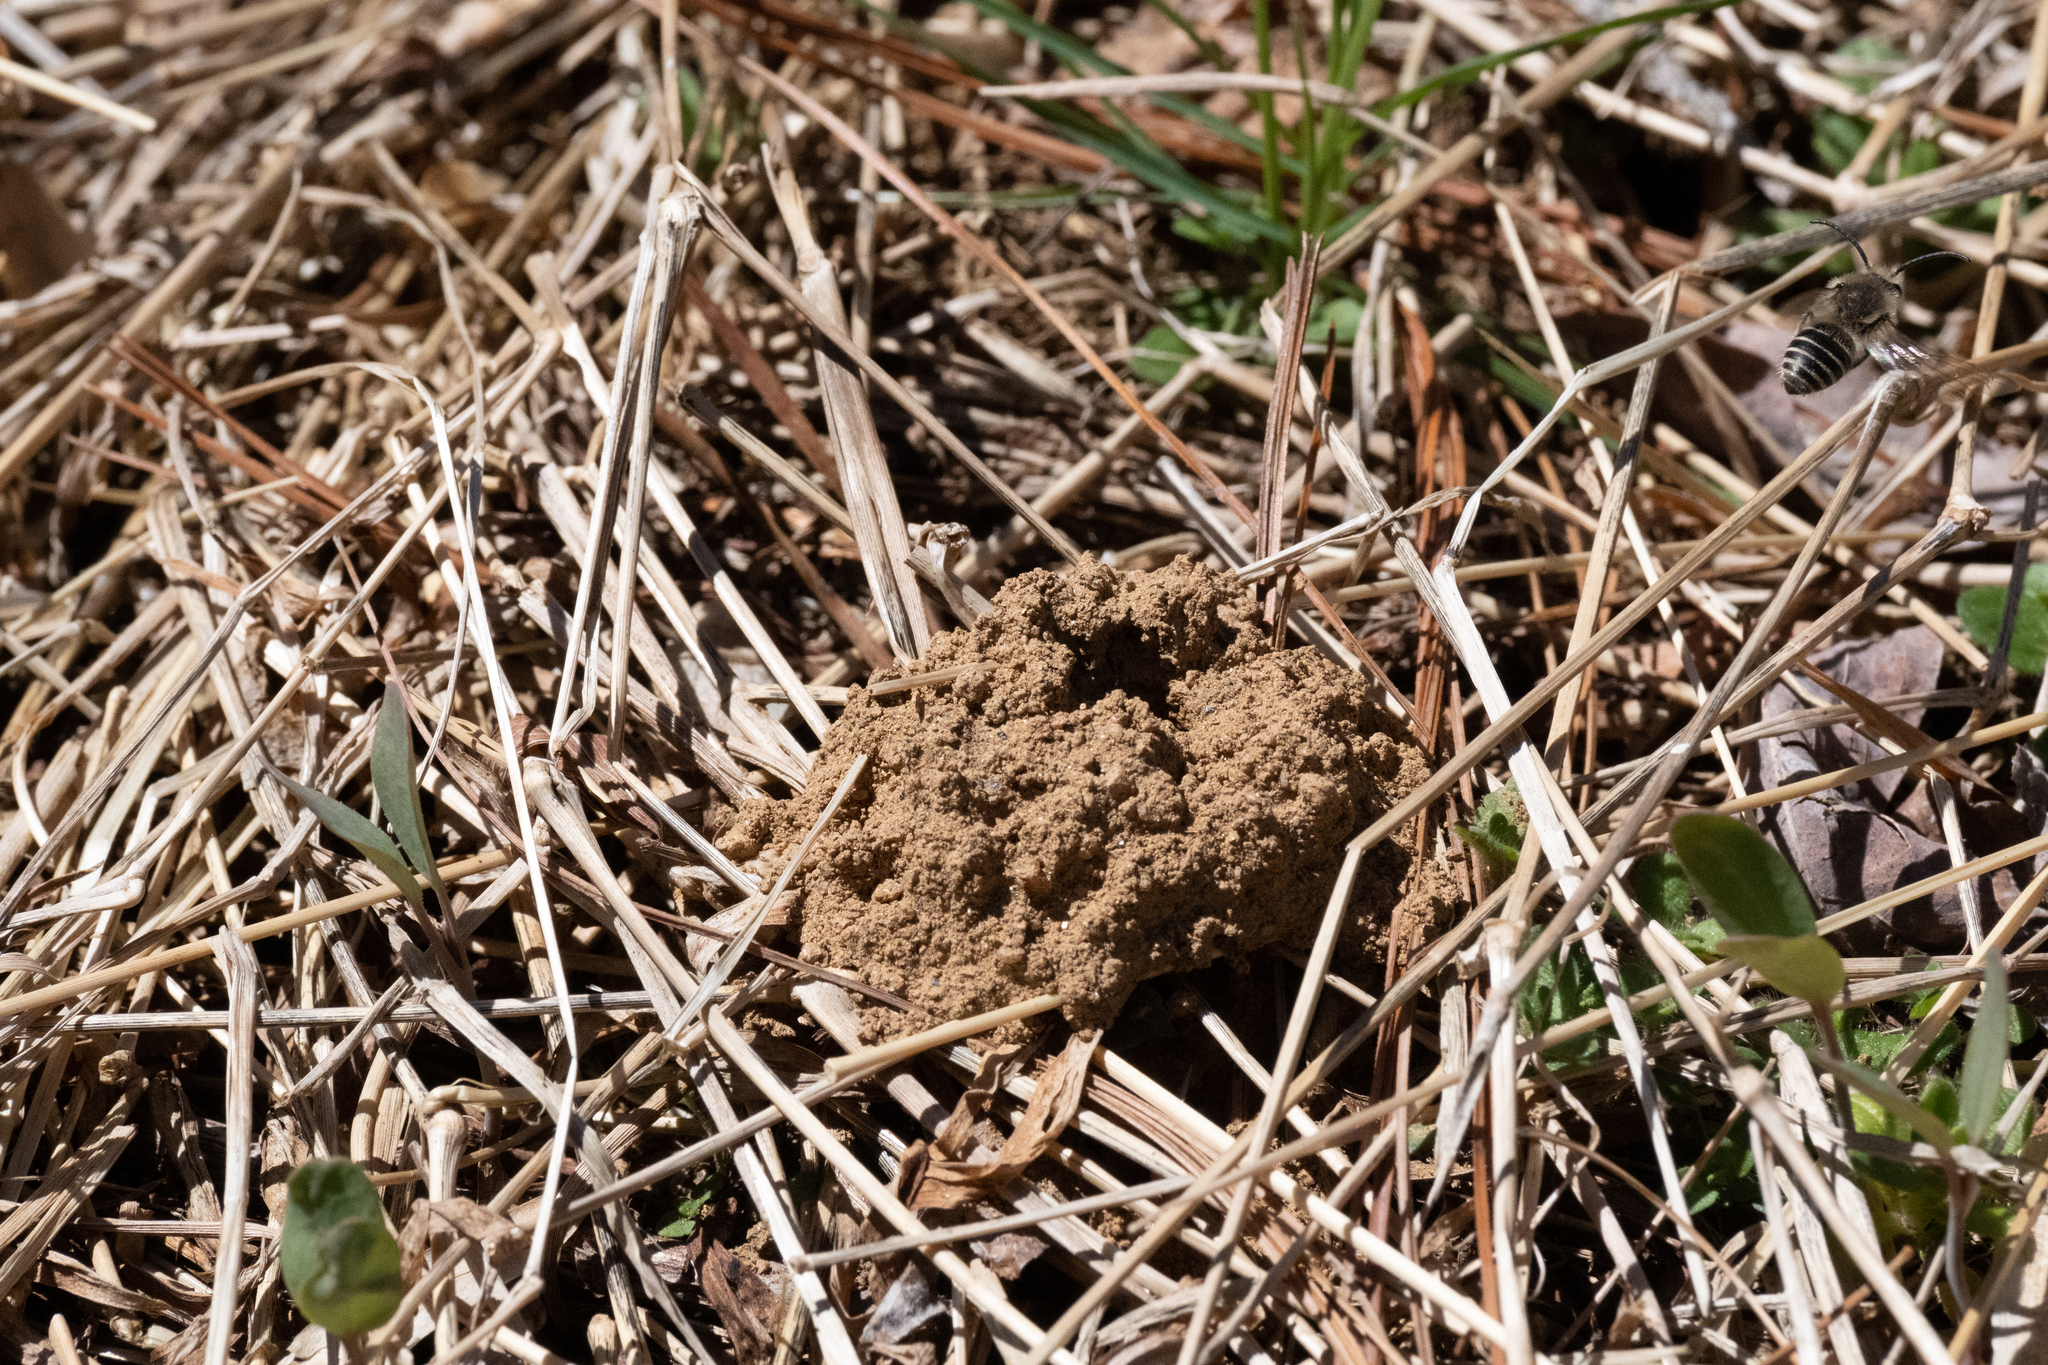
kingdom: Animalia
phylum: Arthropoda
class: Insecta
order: Hymenoptera
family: Colletidae
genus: Colletes
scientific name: Colletes inaequalis
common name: Unequal cellophane bee
